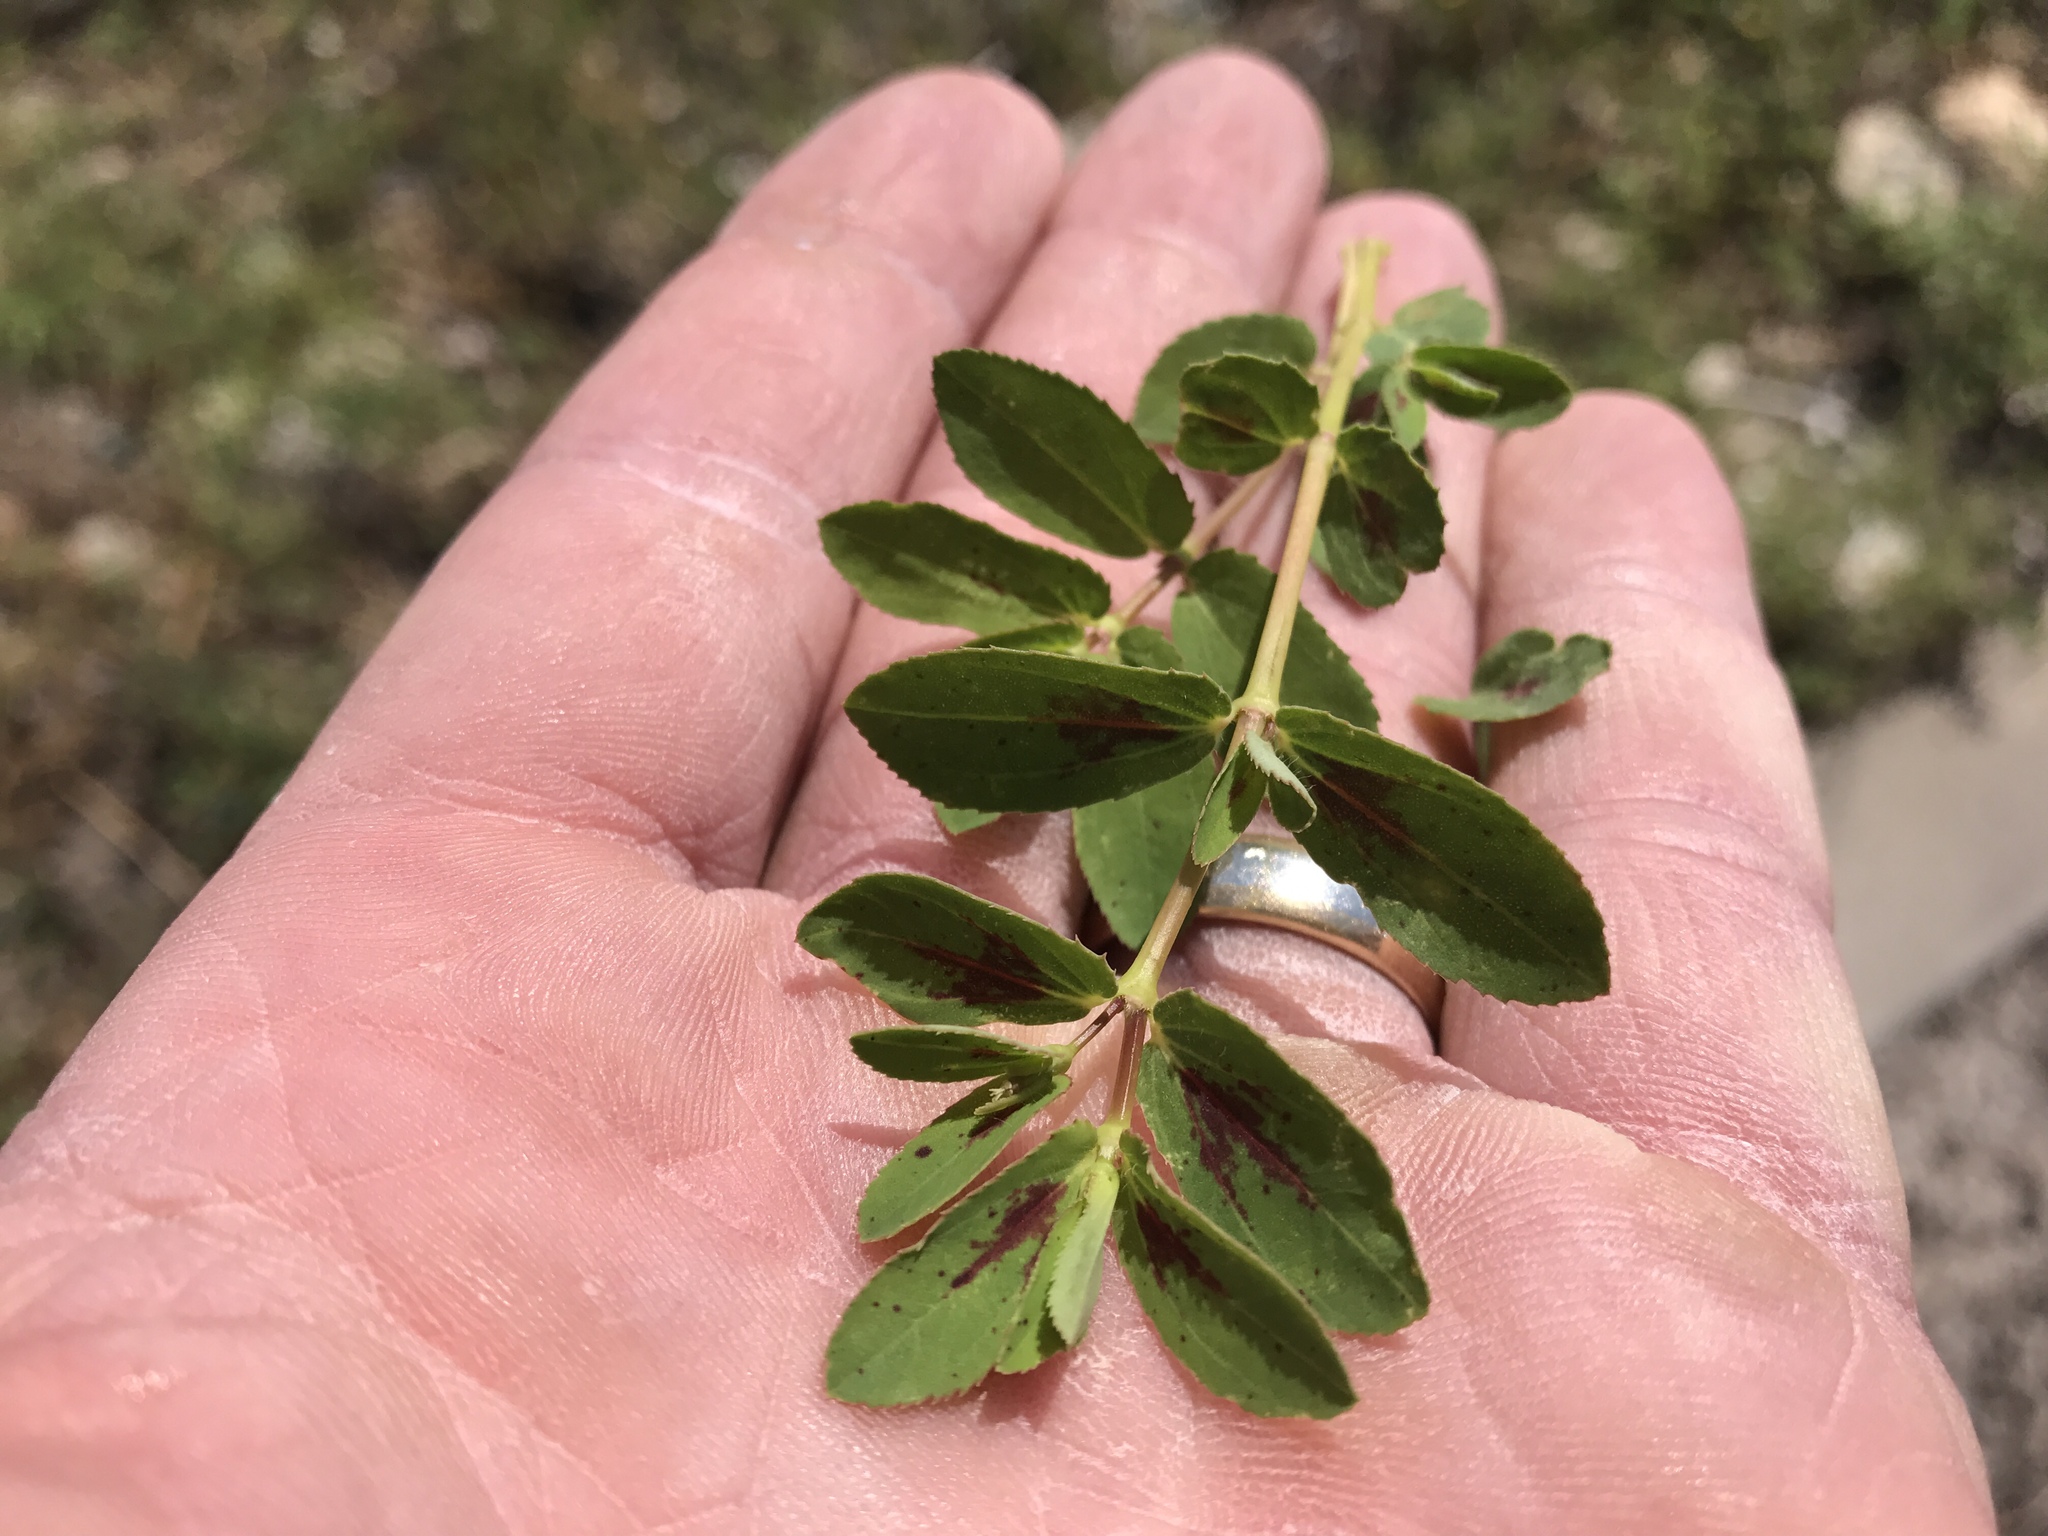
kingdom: Plantae
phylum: Tracheophyta
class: Magnoliopsida
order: Malpighiales
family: Euphorbiaceae
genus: Euphorbia
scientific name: Euphorbia hyssopifolia
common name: Hyssopleaf sandmat
